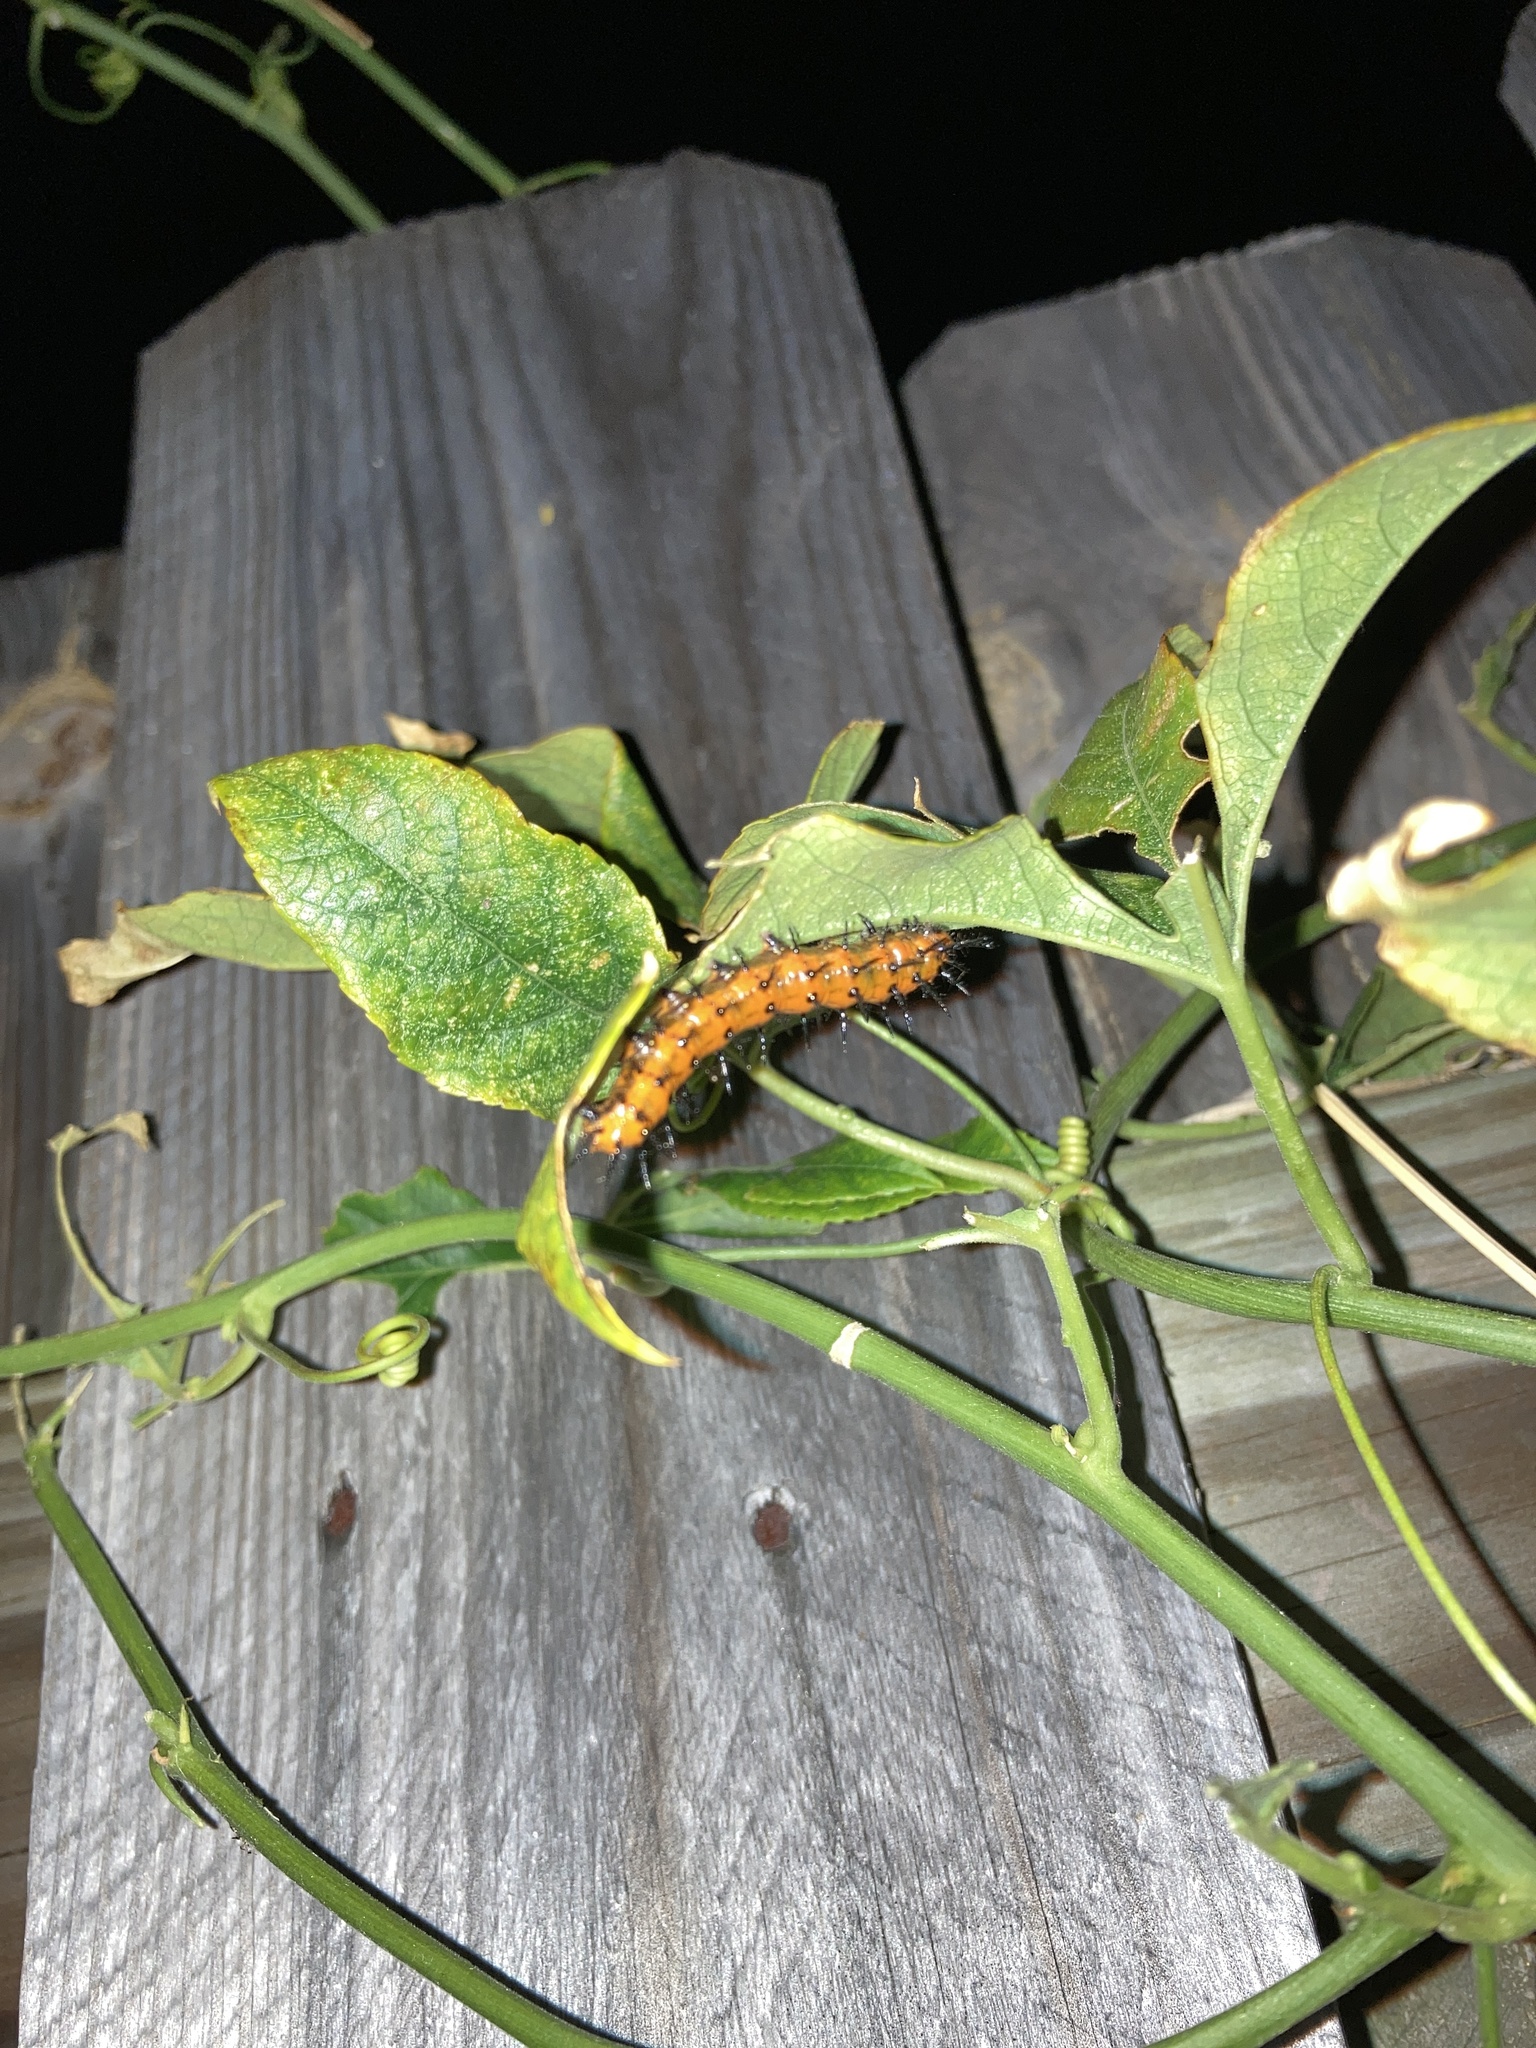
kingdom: Animalia
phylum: Arthropoda
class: Insecta
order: Lepidoptera
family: Nymphalidae
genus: Dione
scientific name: Dione vanillae
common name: Gulf fritillary
